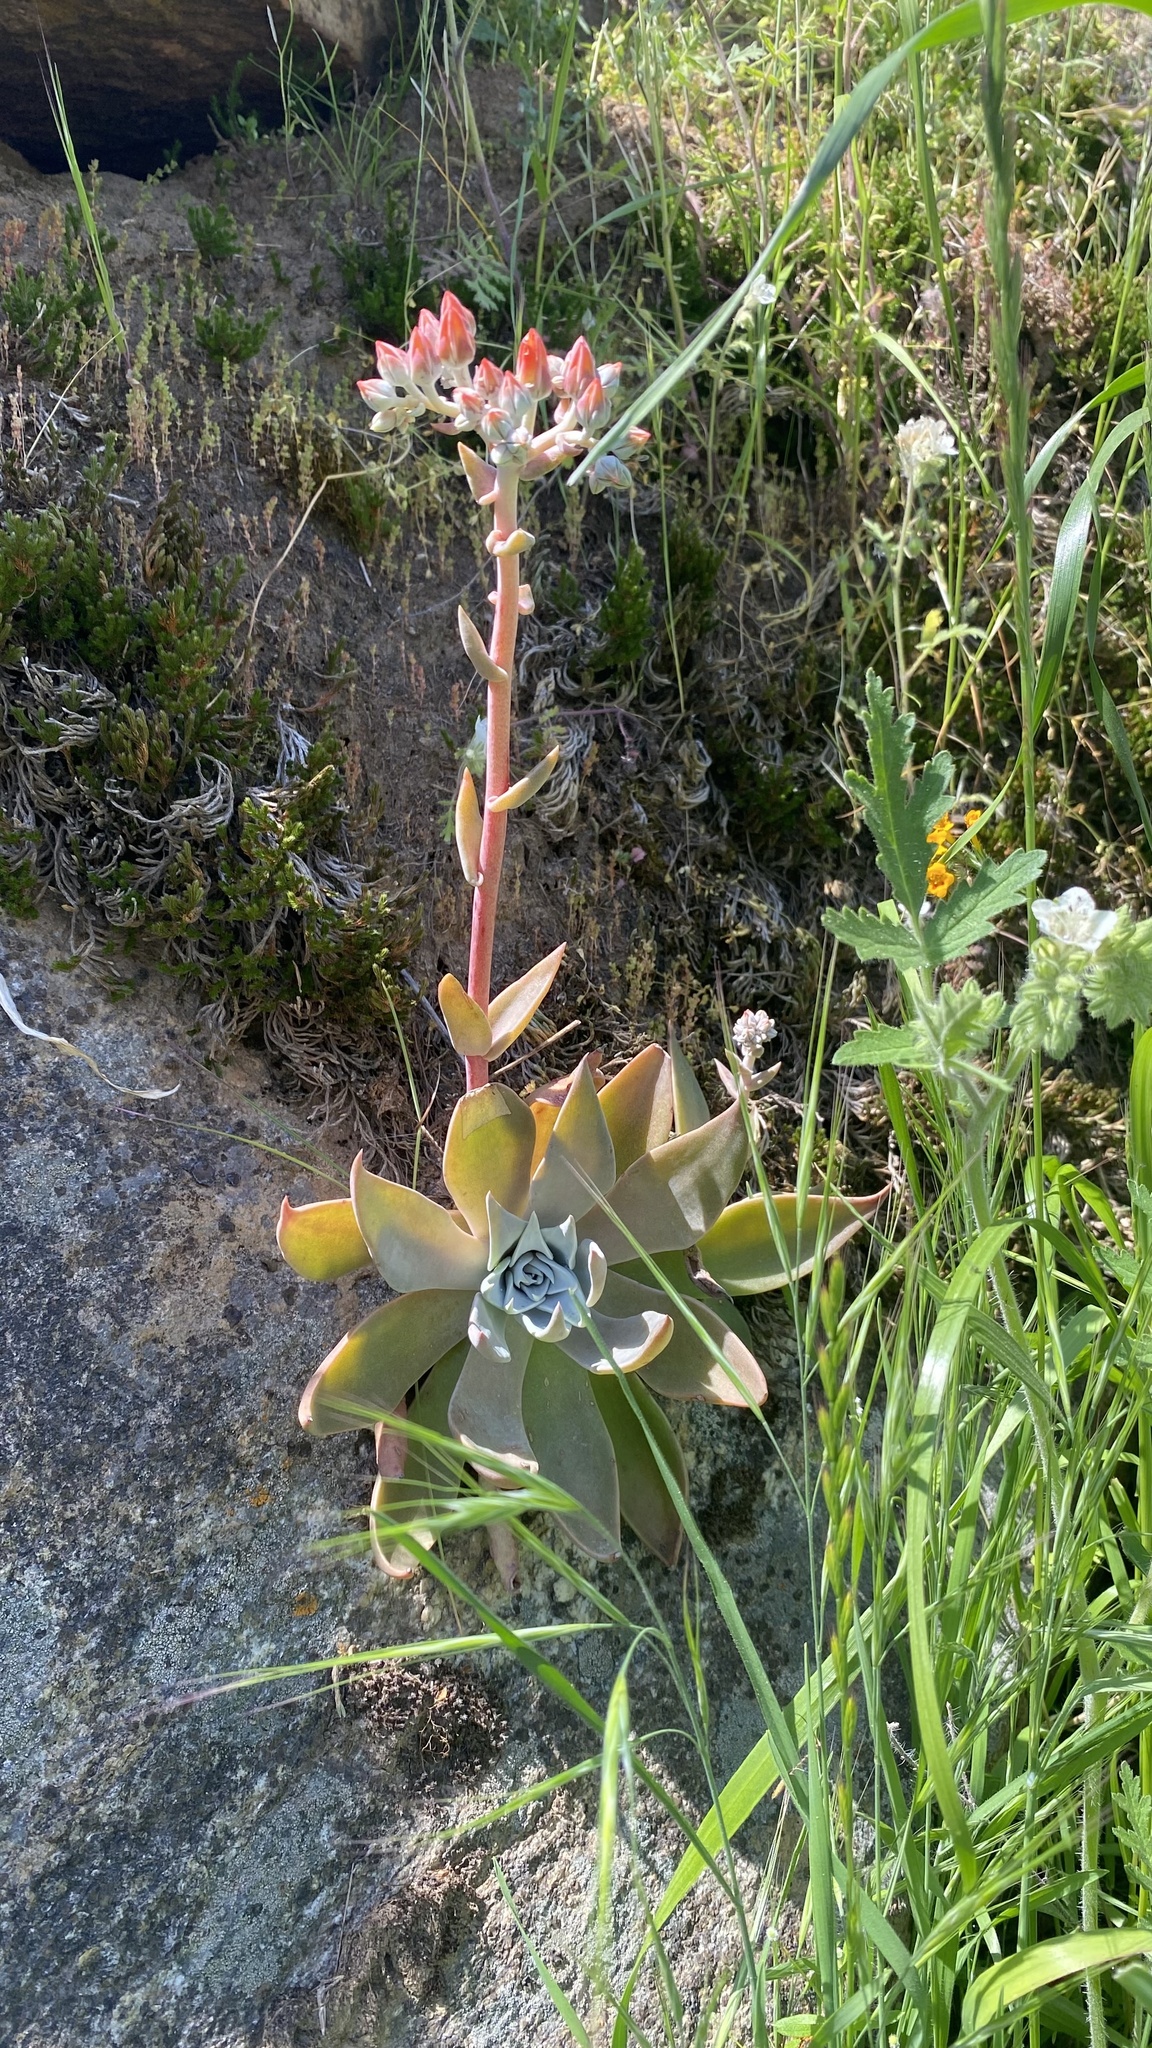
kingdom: Plantae
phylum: Tracheophyta
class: Magnoliopsida
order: Saxifragales
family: Crassulaceae
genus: Dudleya
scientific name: Dudleya cymosa
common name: Canyon dudleya
